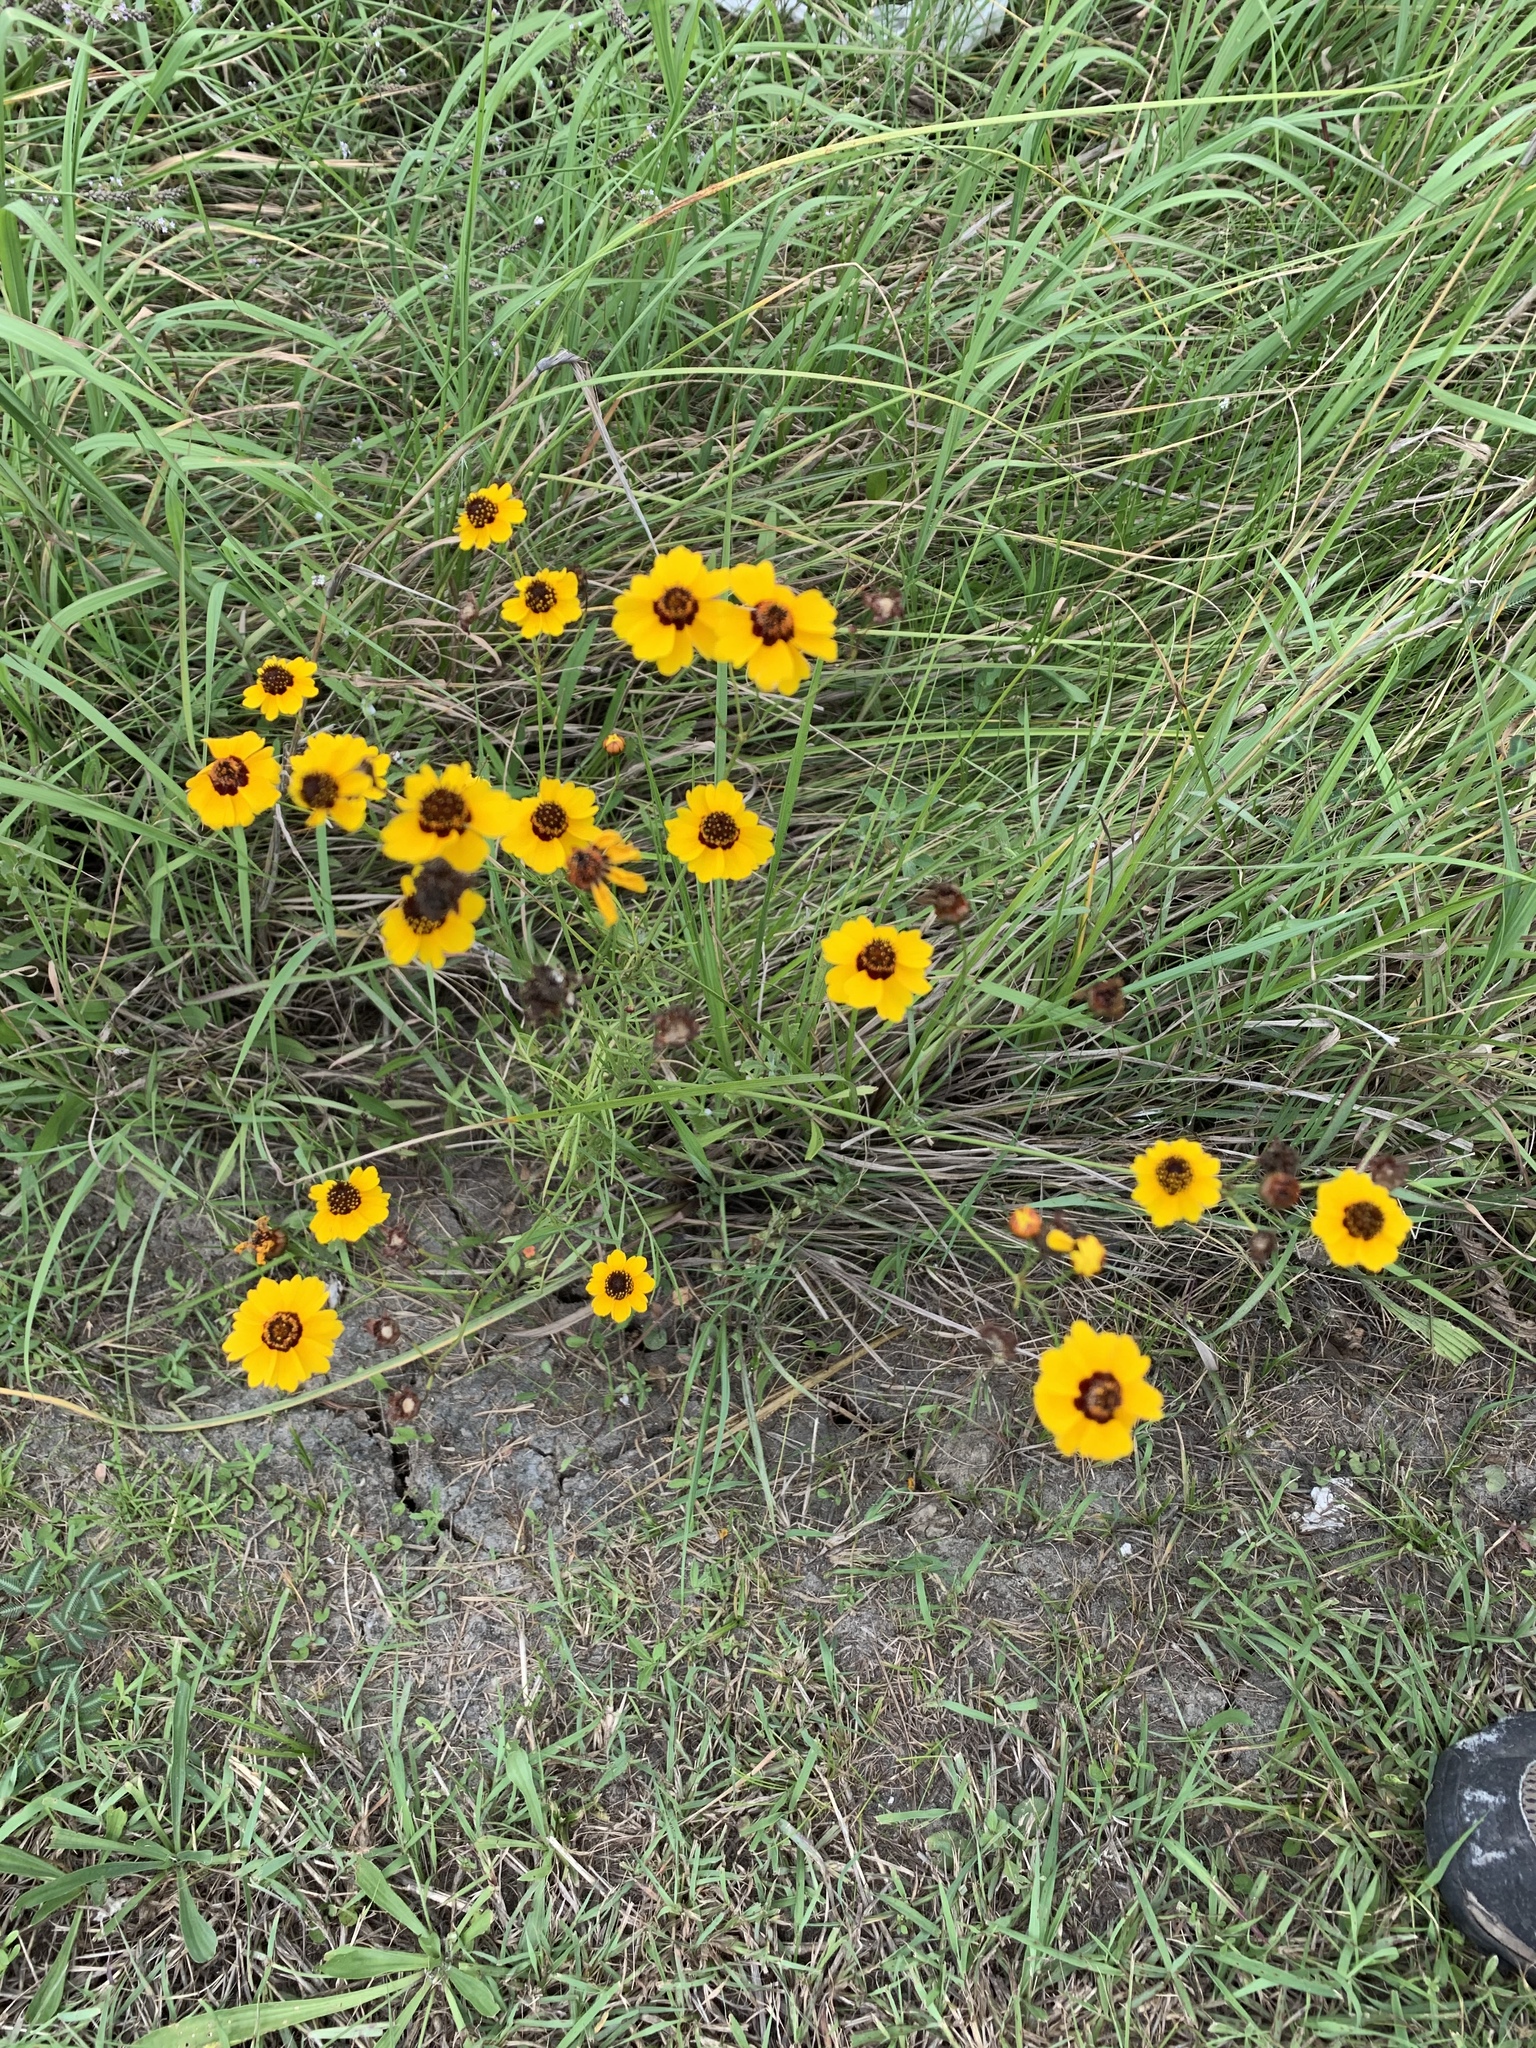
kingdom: Plantae
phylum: Tracheophyta
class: Magnoliopsida
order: Asterales
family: Asteraceae
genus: Coreopsis
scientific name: Coreopsis tinctoria
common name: Garden tickseed
